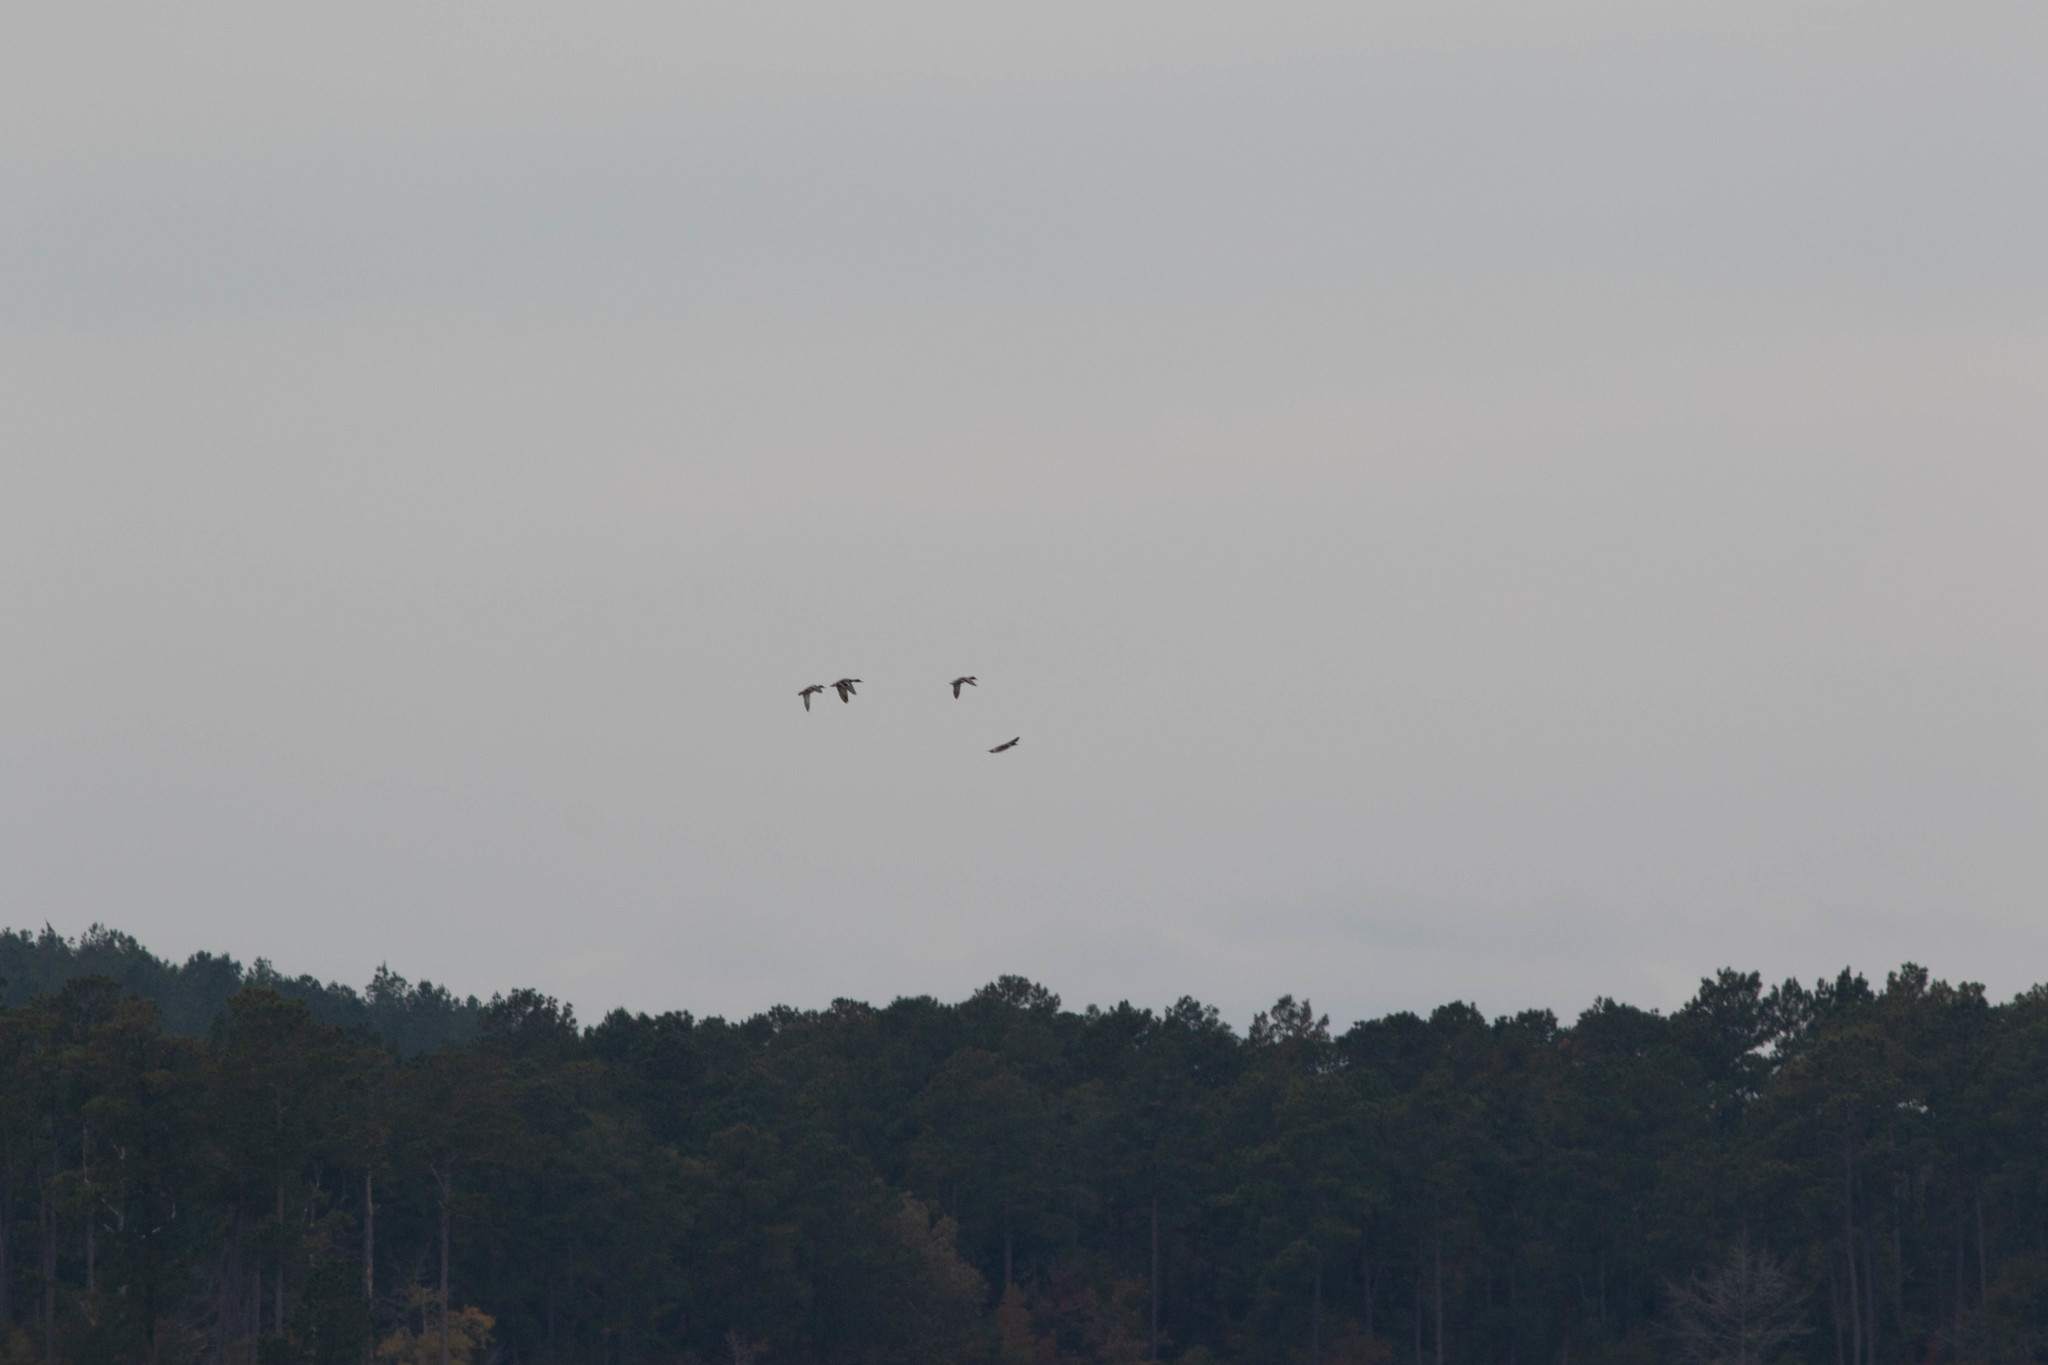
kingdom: Animalia
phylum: Chordata
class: Aves
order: Anseriformes
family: Anatidae
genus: Anas
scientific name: Anas platyrhynchos
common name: Mallard
